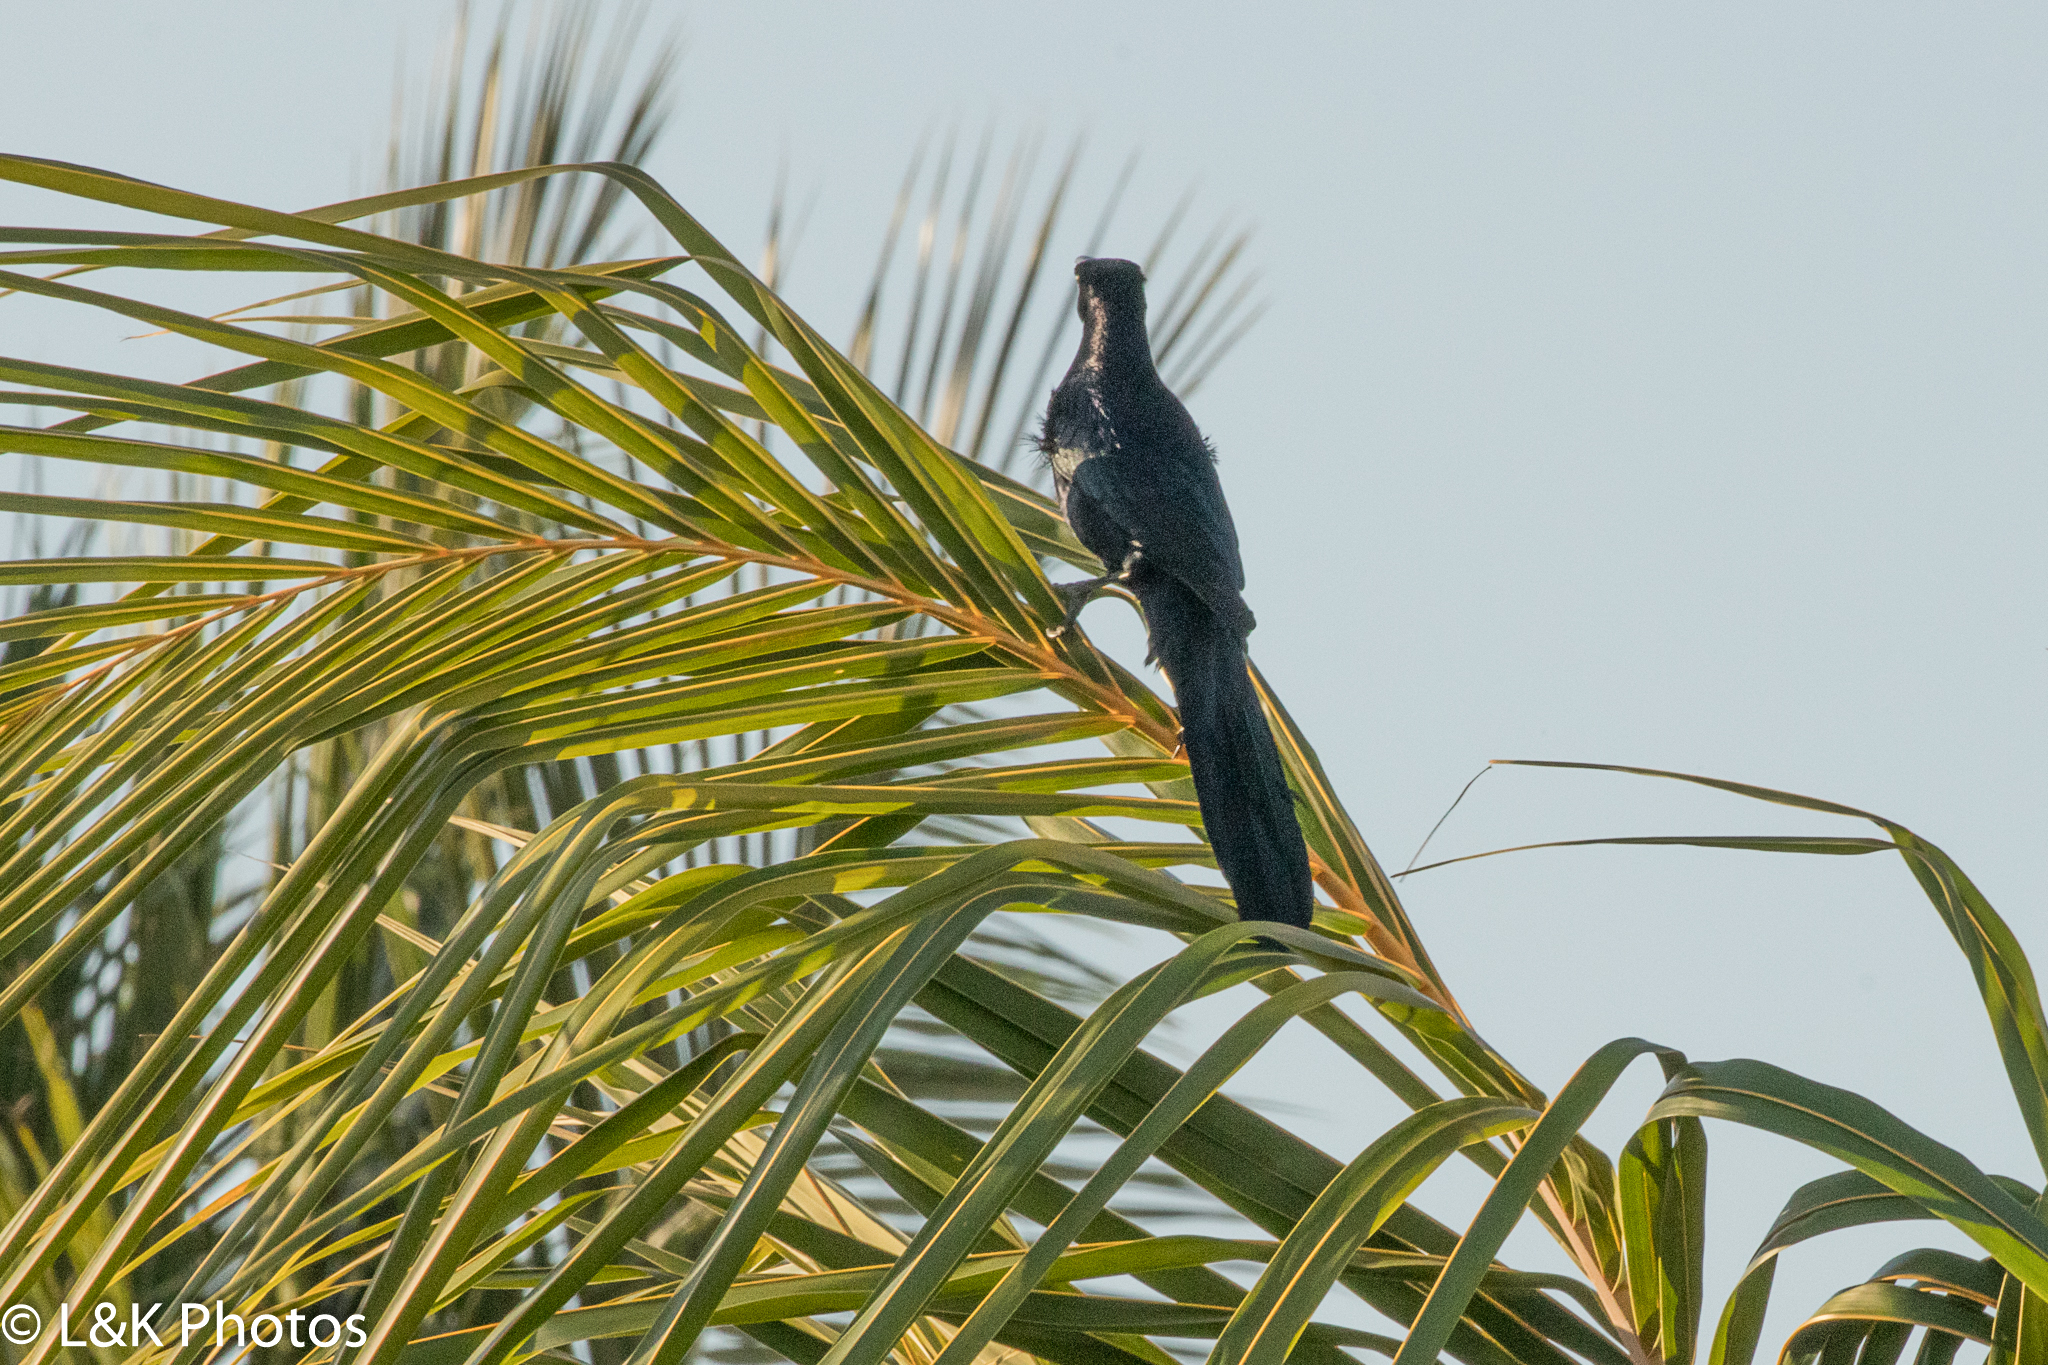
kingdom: Animalia
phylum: Chordata
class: Aves
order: Passeriformes
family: Icteridae
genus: Quiscalus
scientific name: Quiscalus mexicanus
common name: Great-tailed grackle
